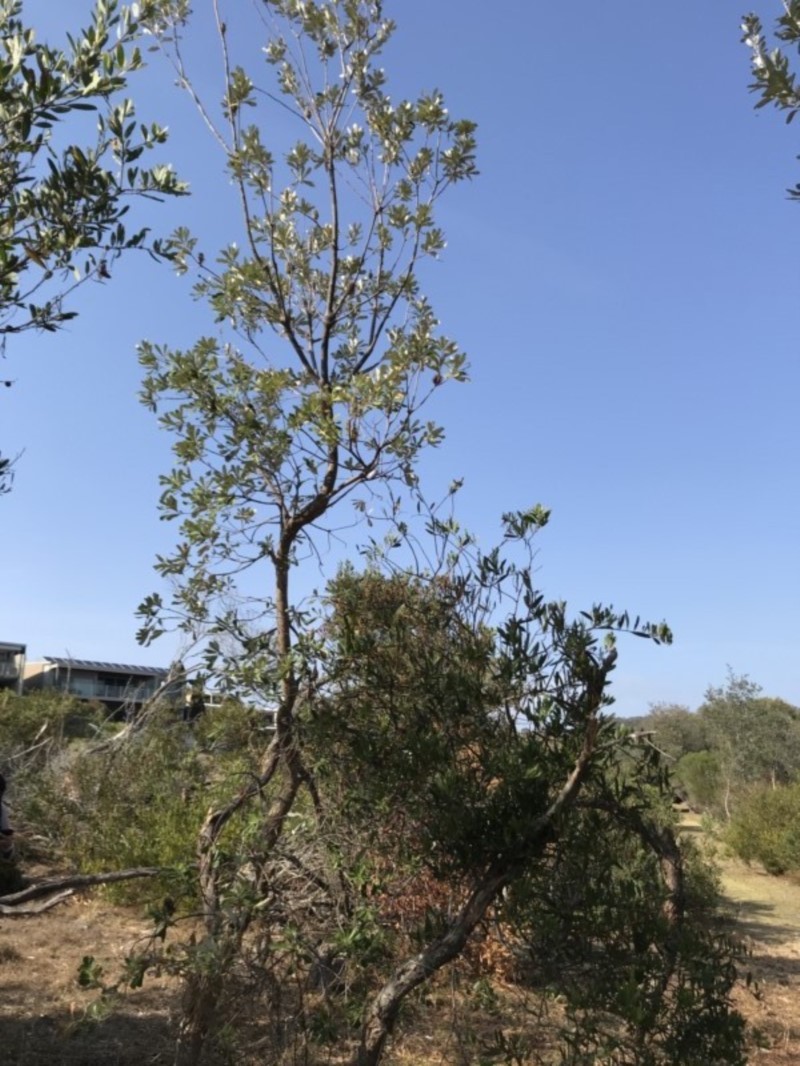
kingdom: Plantae
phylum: Tracheophyta
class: Magnoliopsida
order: Proteales
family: Proteaceae
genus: Banksia
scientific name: Banksia integrifolia
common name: White-honeysuckle
